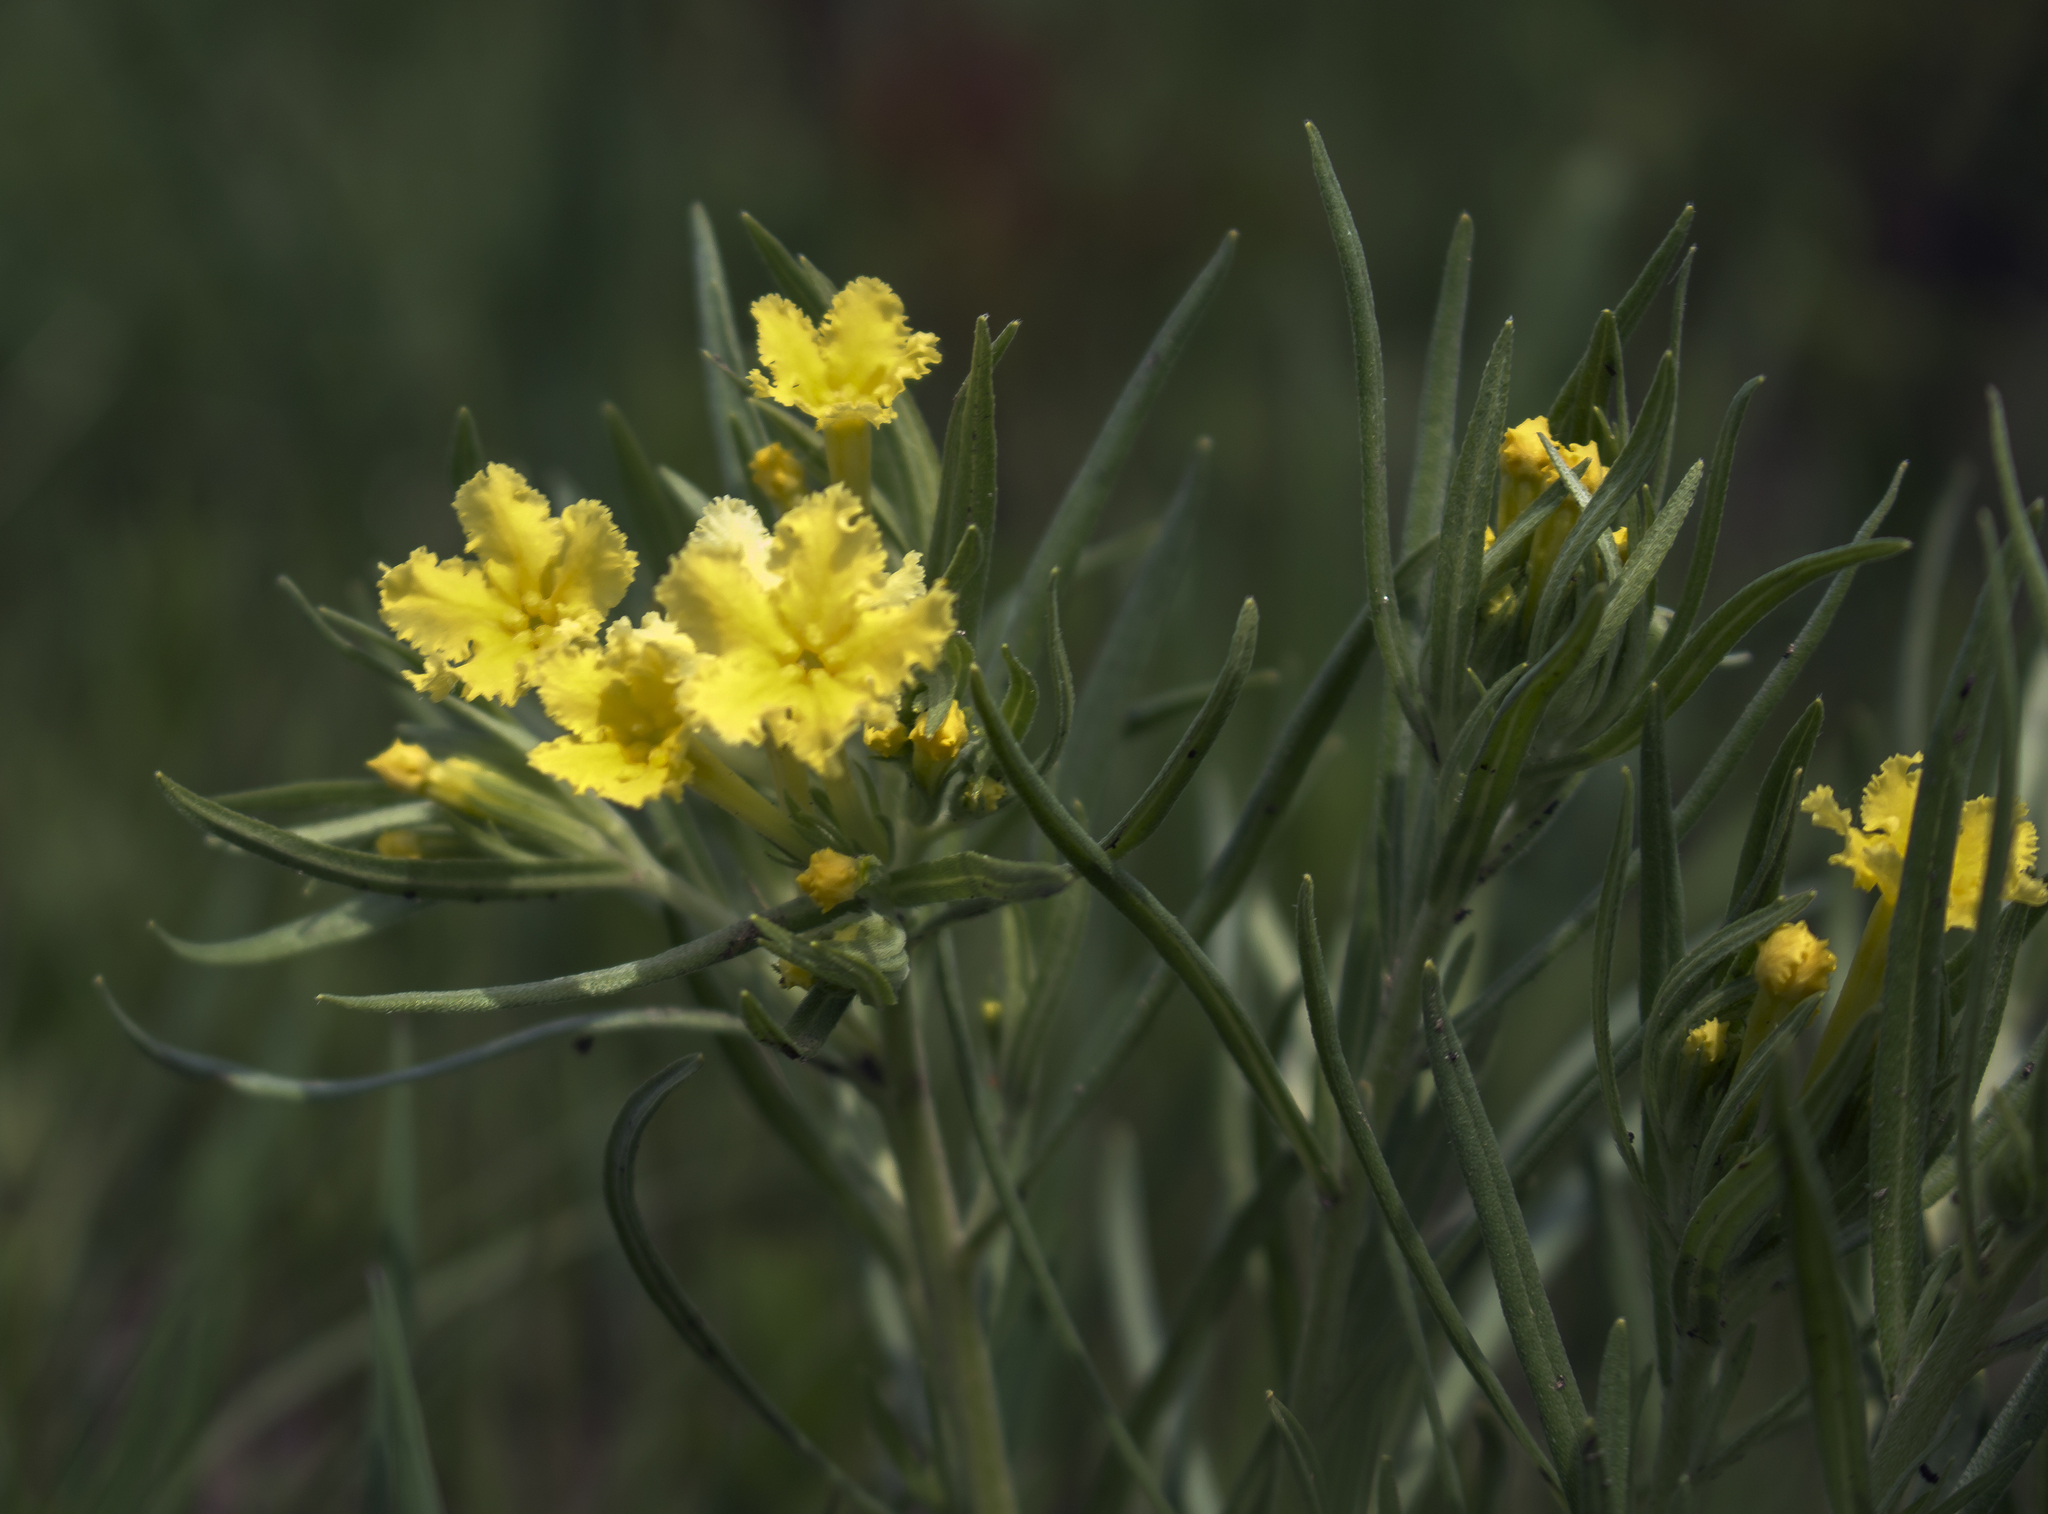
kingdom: Plantae
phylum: Tracheophyta
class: Magnoliopsida
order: Boraginales
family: Boraginaceae
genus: Lithospermum
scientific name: Lithospermum incisum
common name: Fringed gromwell
